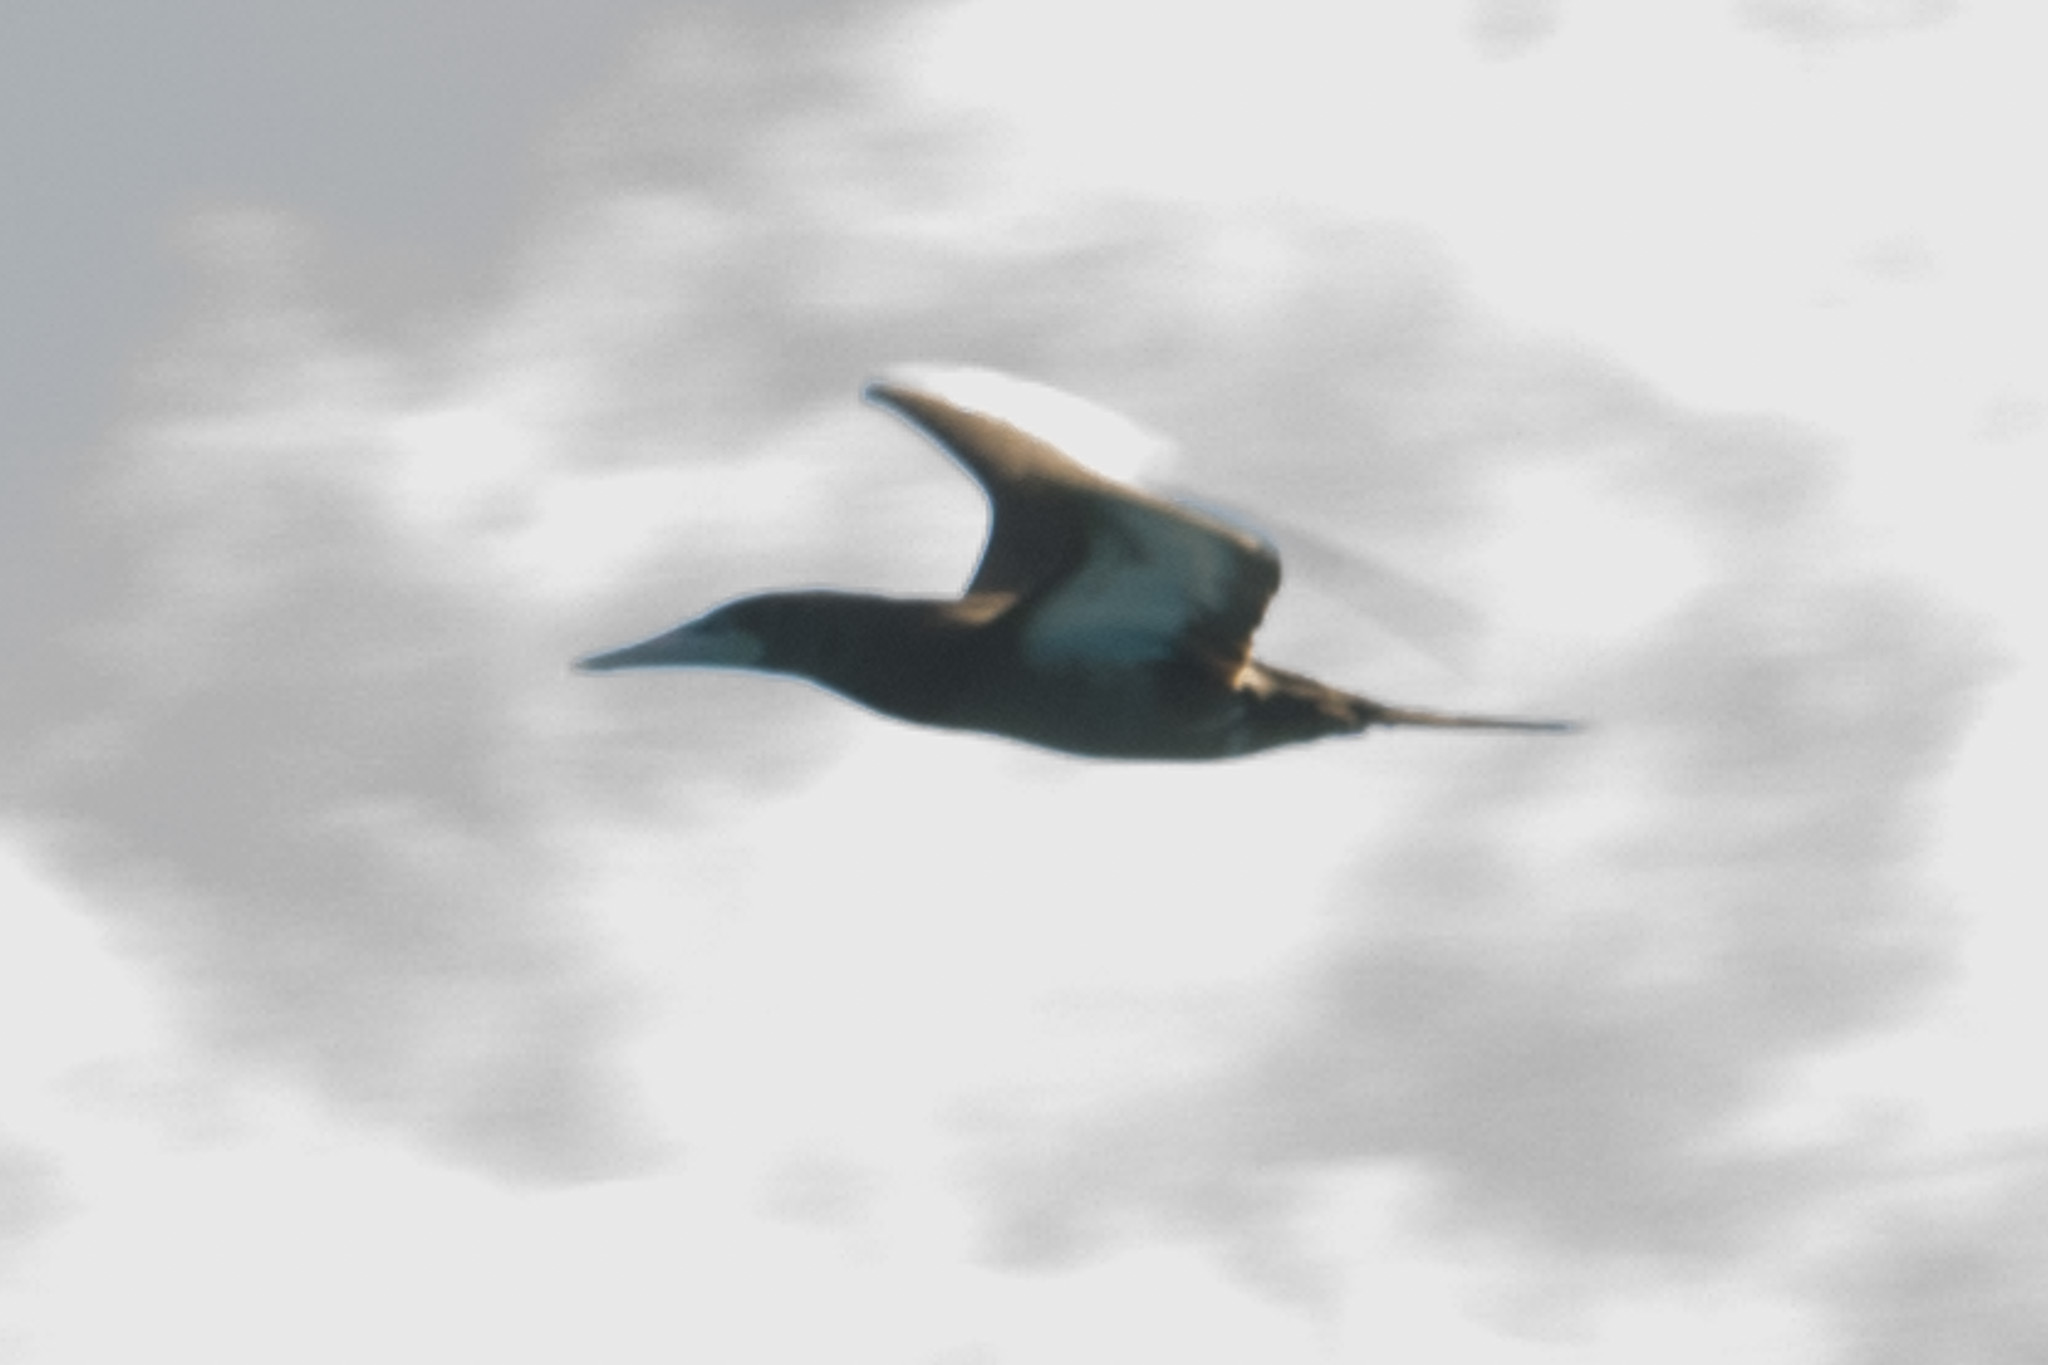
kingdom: Animalia
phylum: Chordata
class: Aves
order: Suliformes
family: Sulidae
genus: Sula
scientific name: Sula leucogaster
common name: Brown booby
